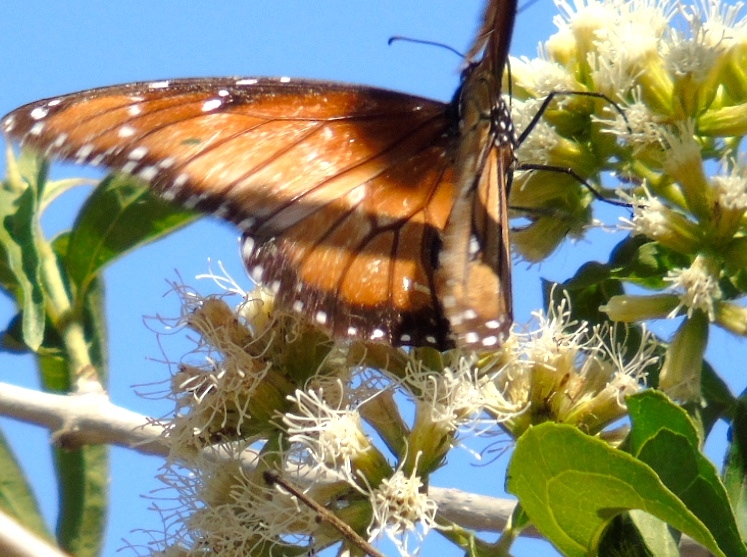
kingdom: Animalia
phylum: Arthropoda
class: Insecta
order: Lepidoptera
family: Nymphalidae
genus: Danaus
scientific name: Danaus eresimus
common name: Soldier
